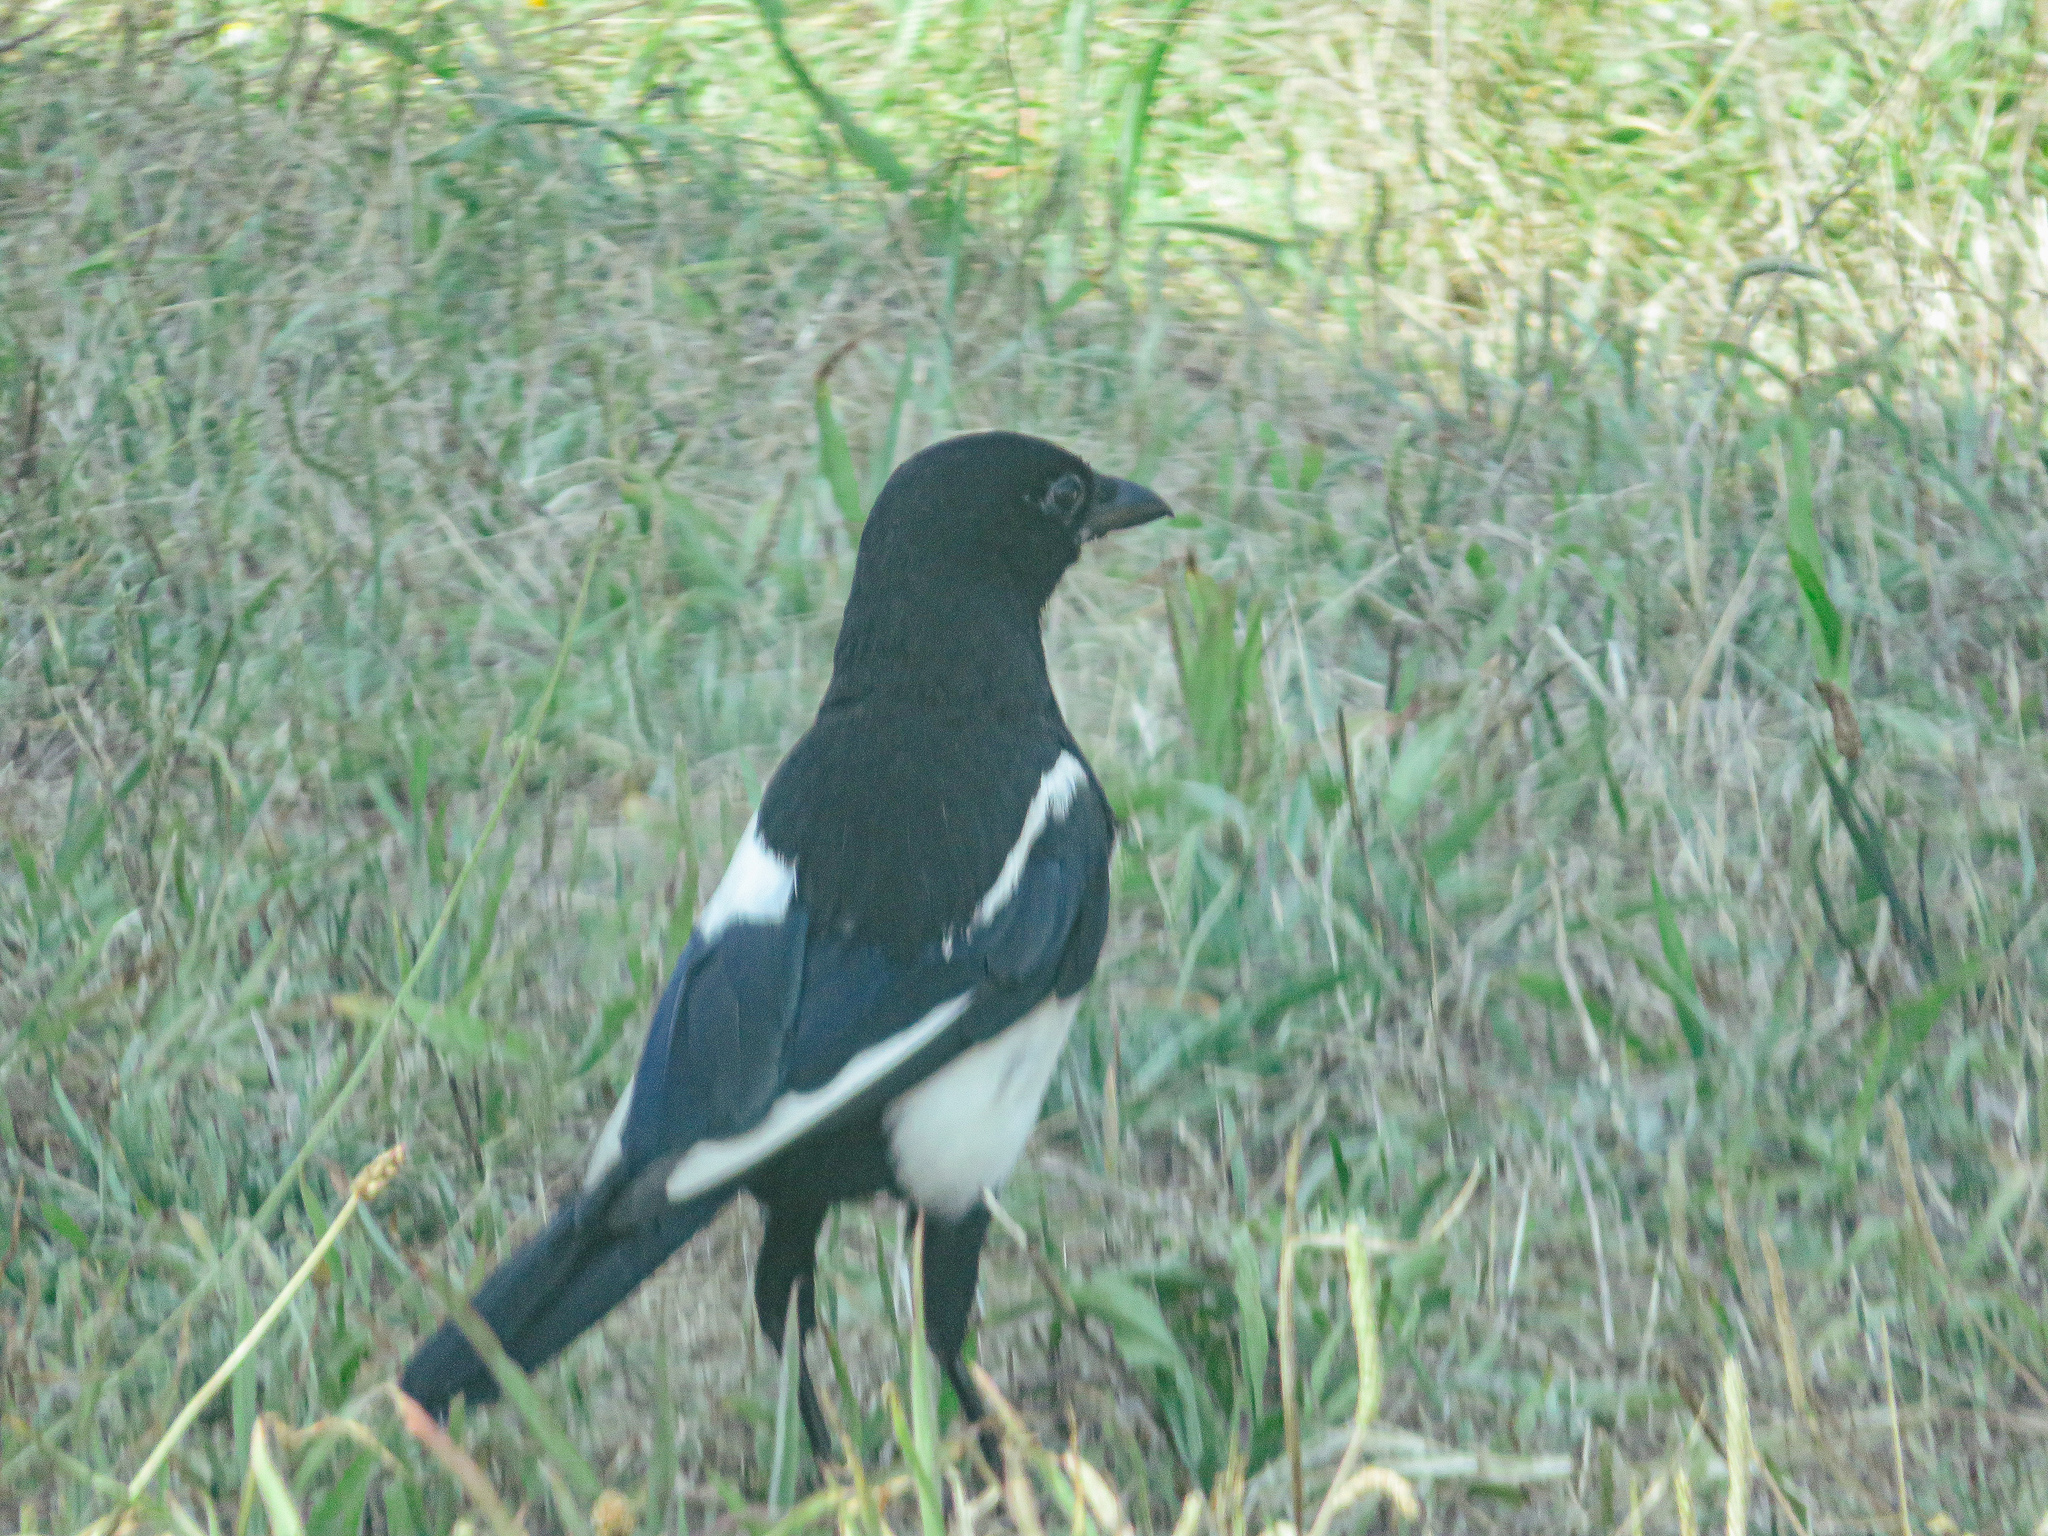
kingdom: Animalia
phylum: Chordata
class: Aves
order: Passeriformes
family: Corvidae
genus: Pica
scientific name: Pica pica
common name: Eurasian magpie
